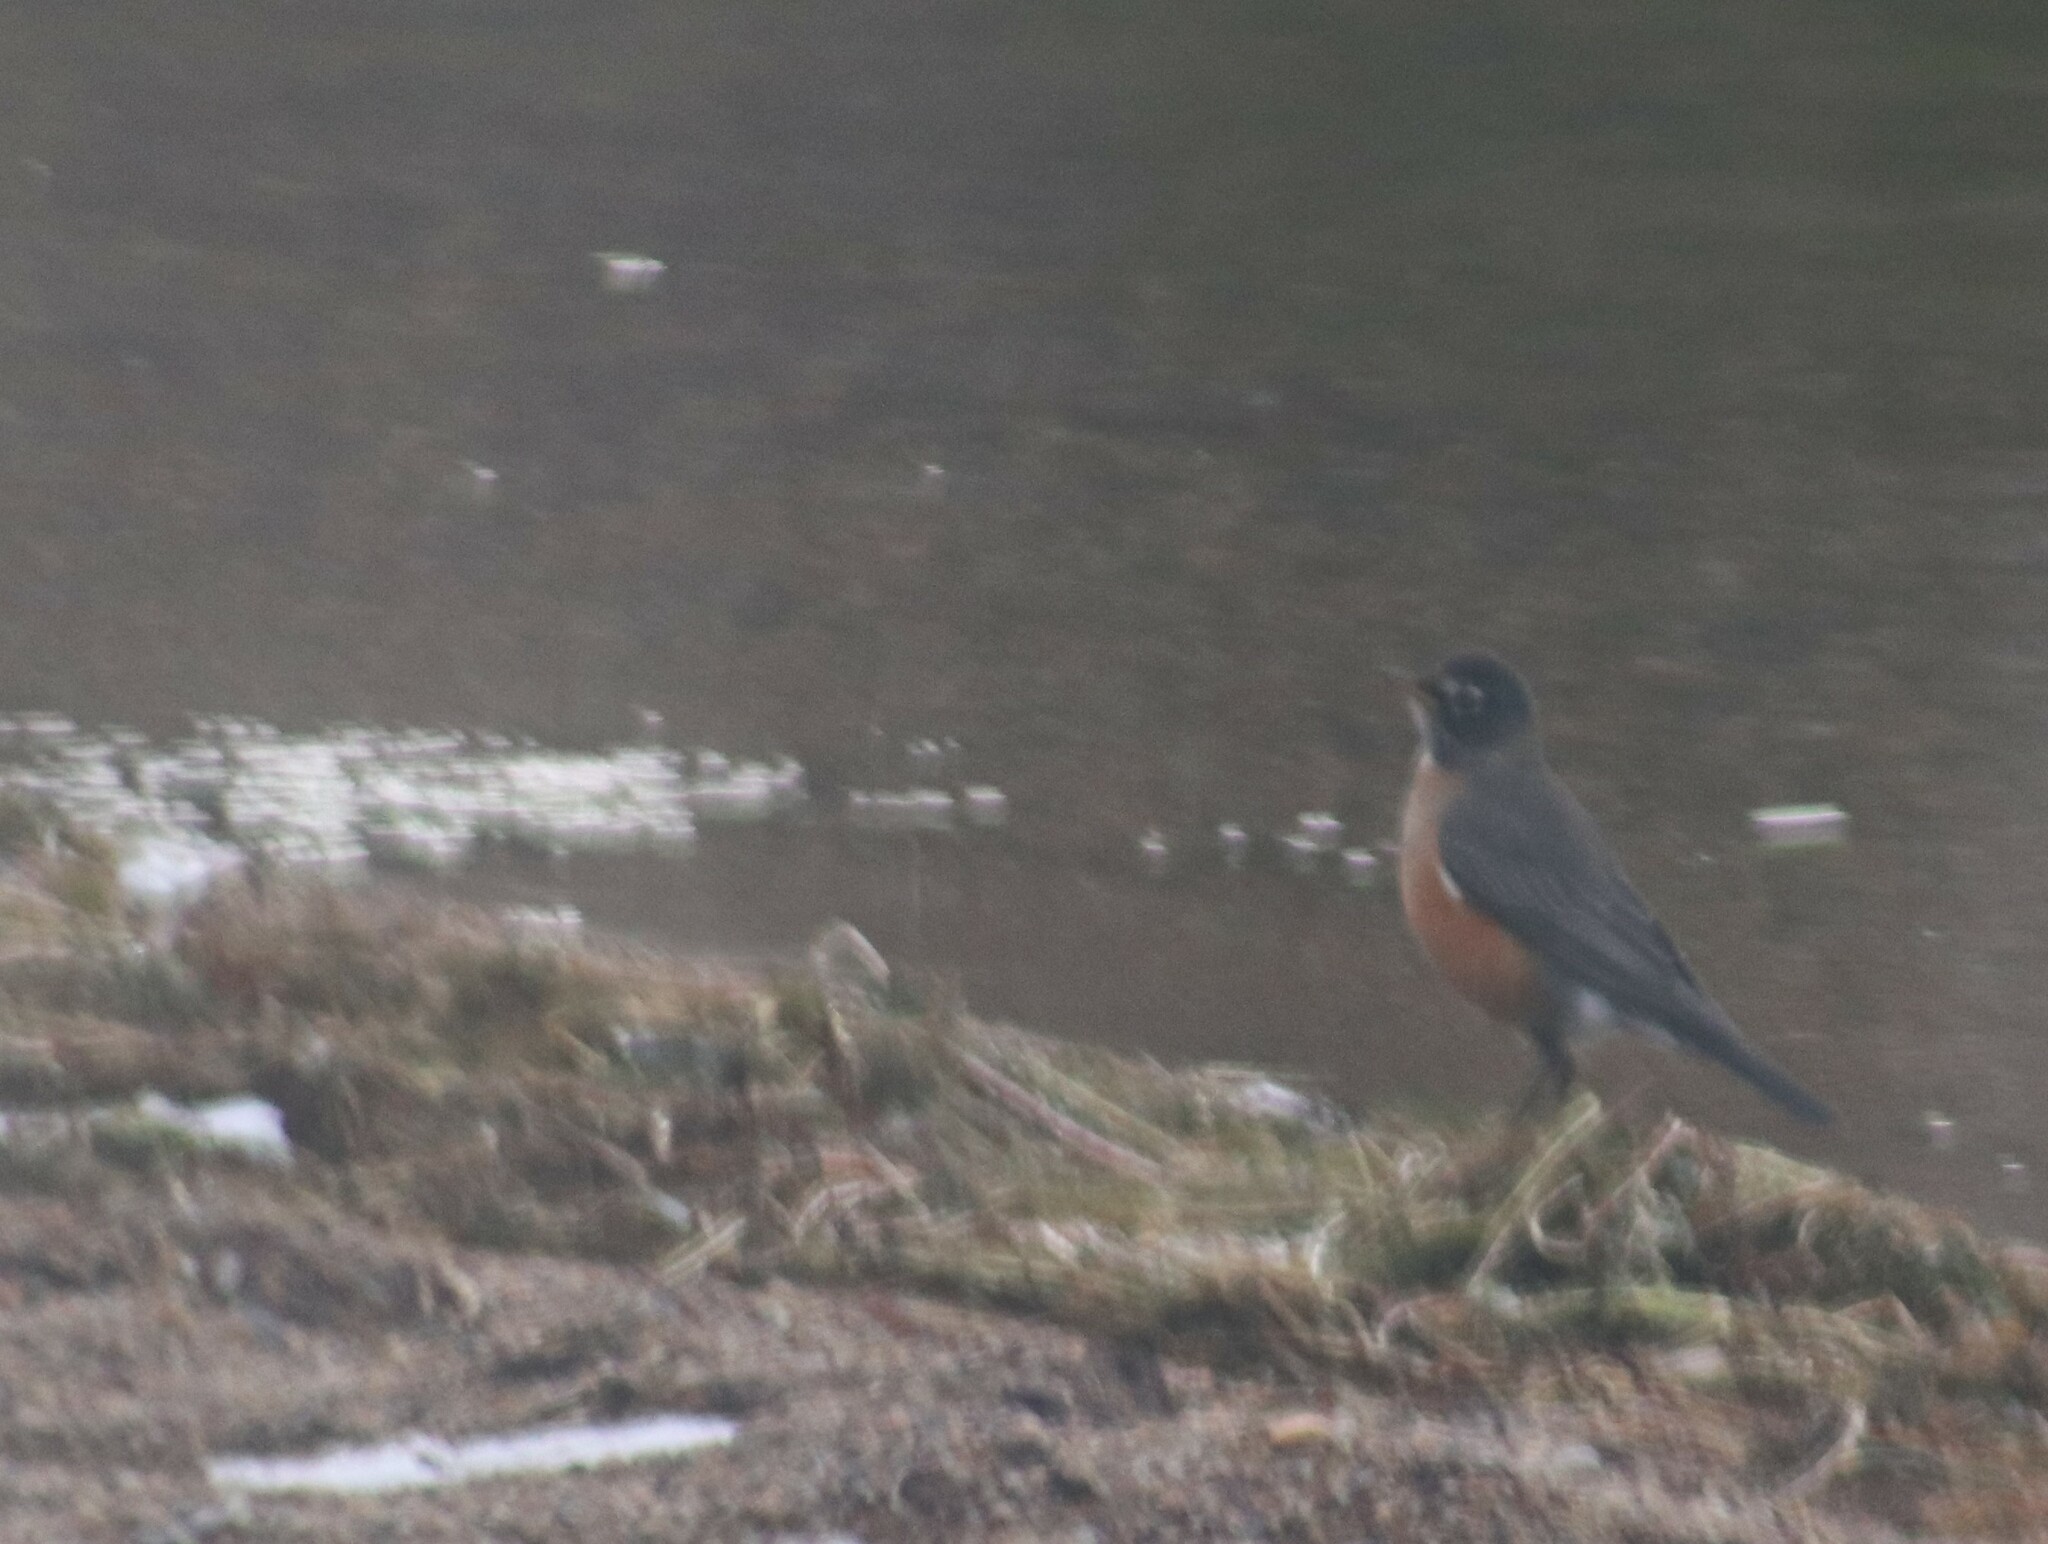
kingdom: Animalia
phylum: Chordata
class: Aves
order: Passeriformes
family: Turdidae
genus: Turdus
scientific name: Turdus migratorius
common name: American robin
